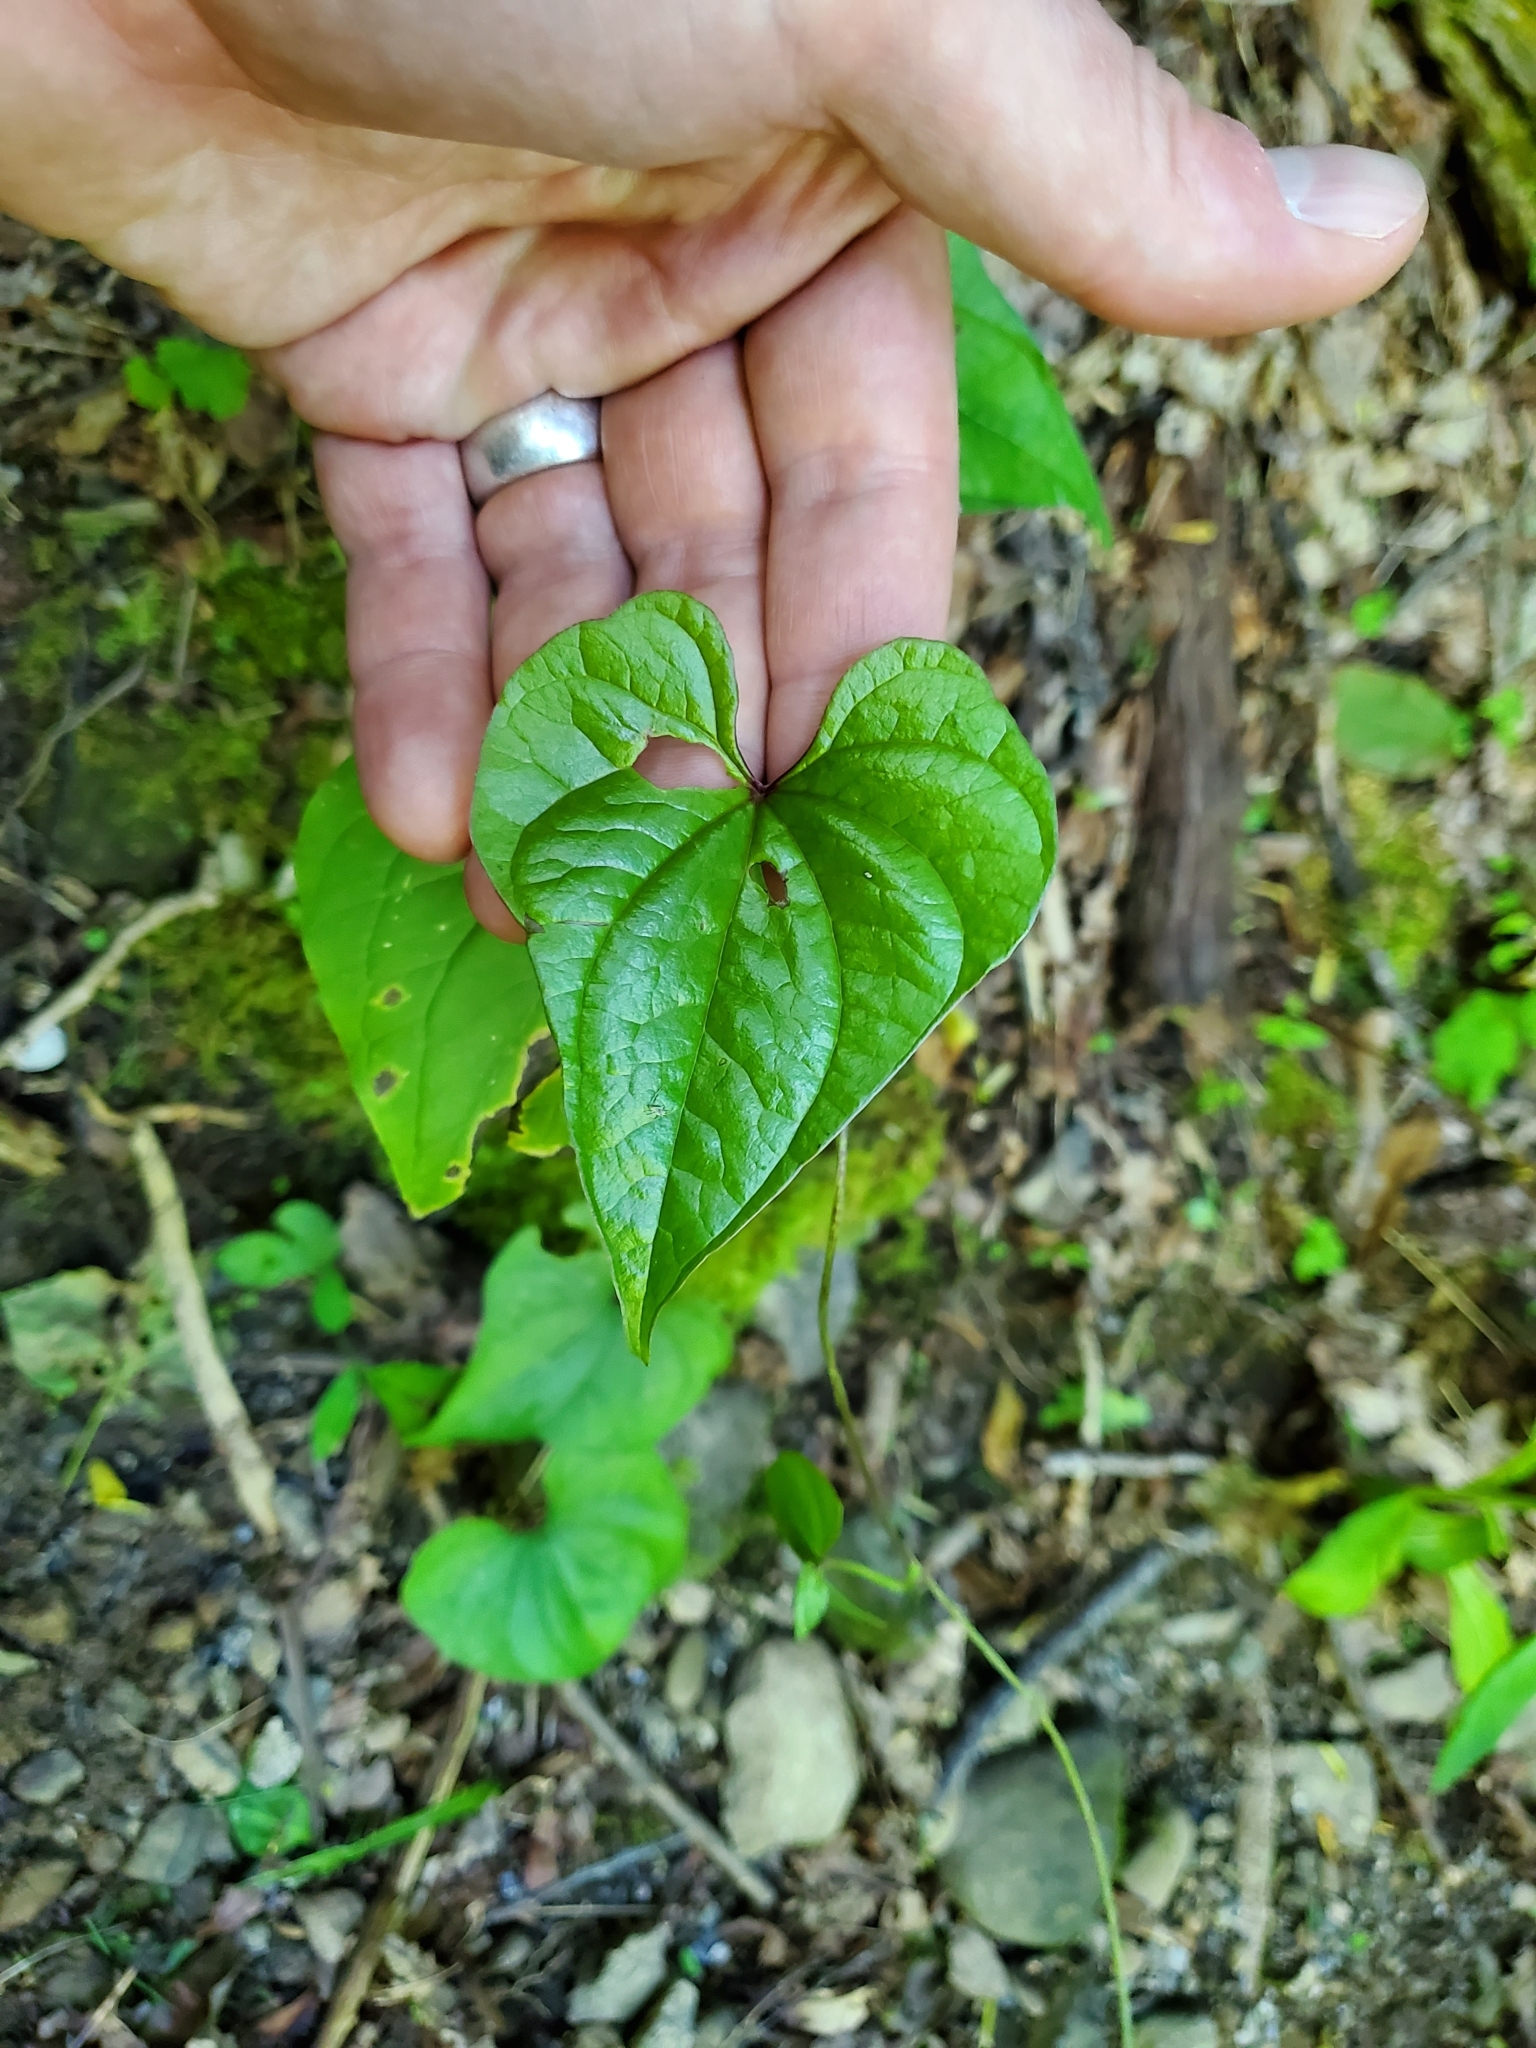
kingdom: Plantae
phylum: Tracheophyta
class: Liliopsida
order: Dioscoreales
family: Dioscoreaceae
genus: Dioscorea
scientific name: Dioscorea polystachya
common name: Chinese yam
